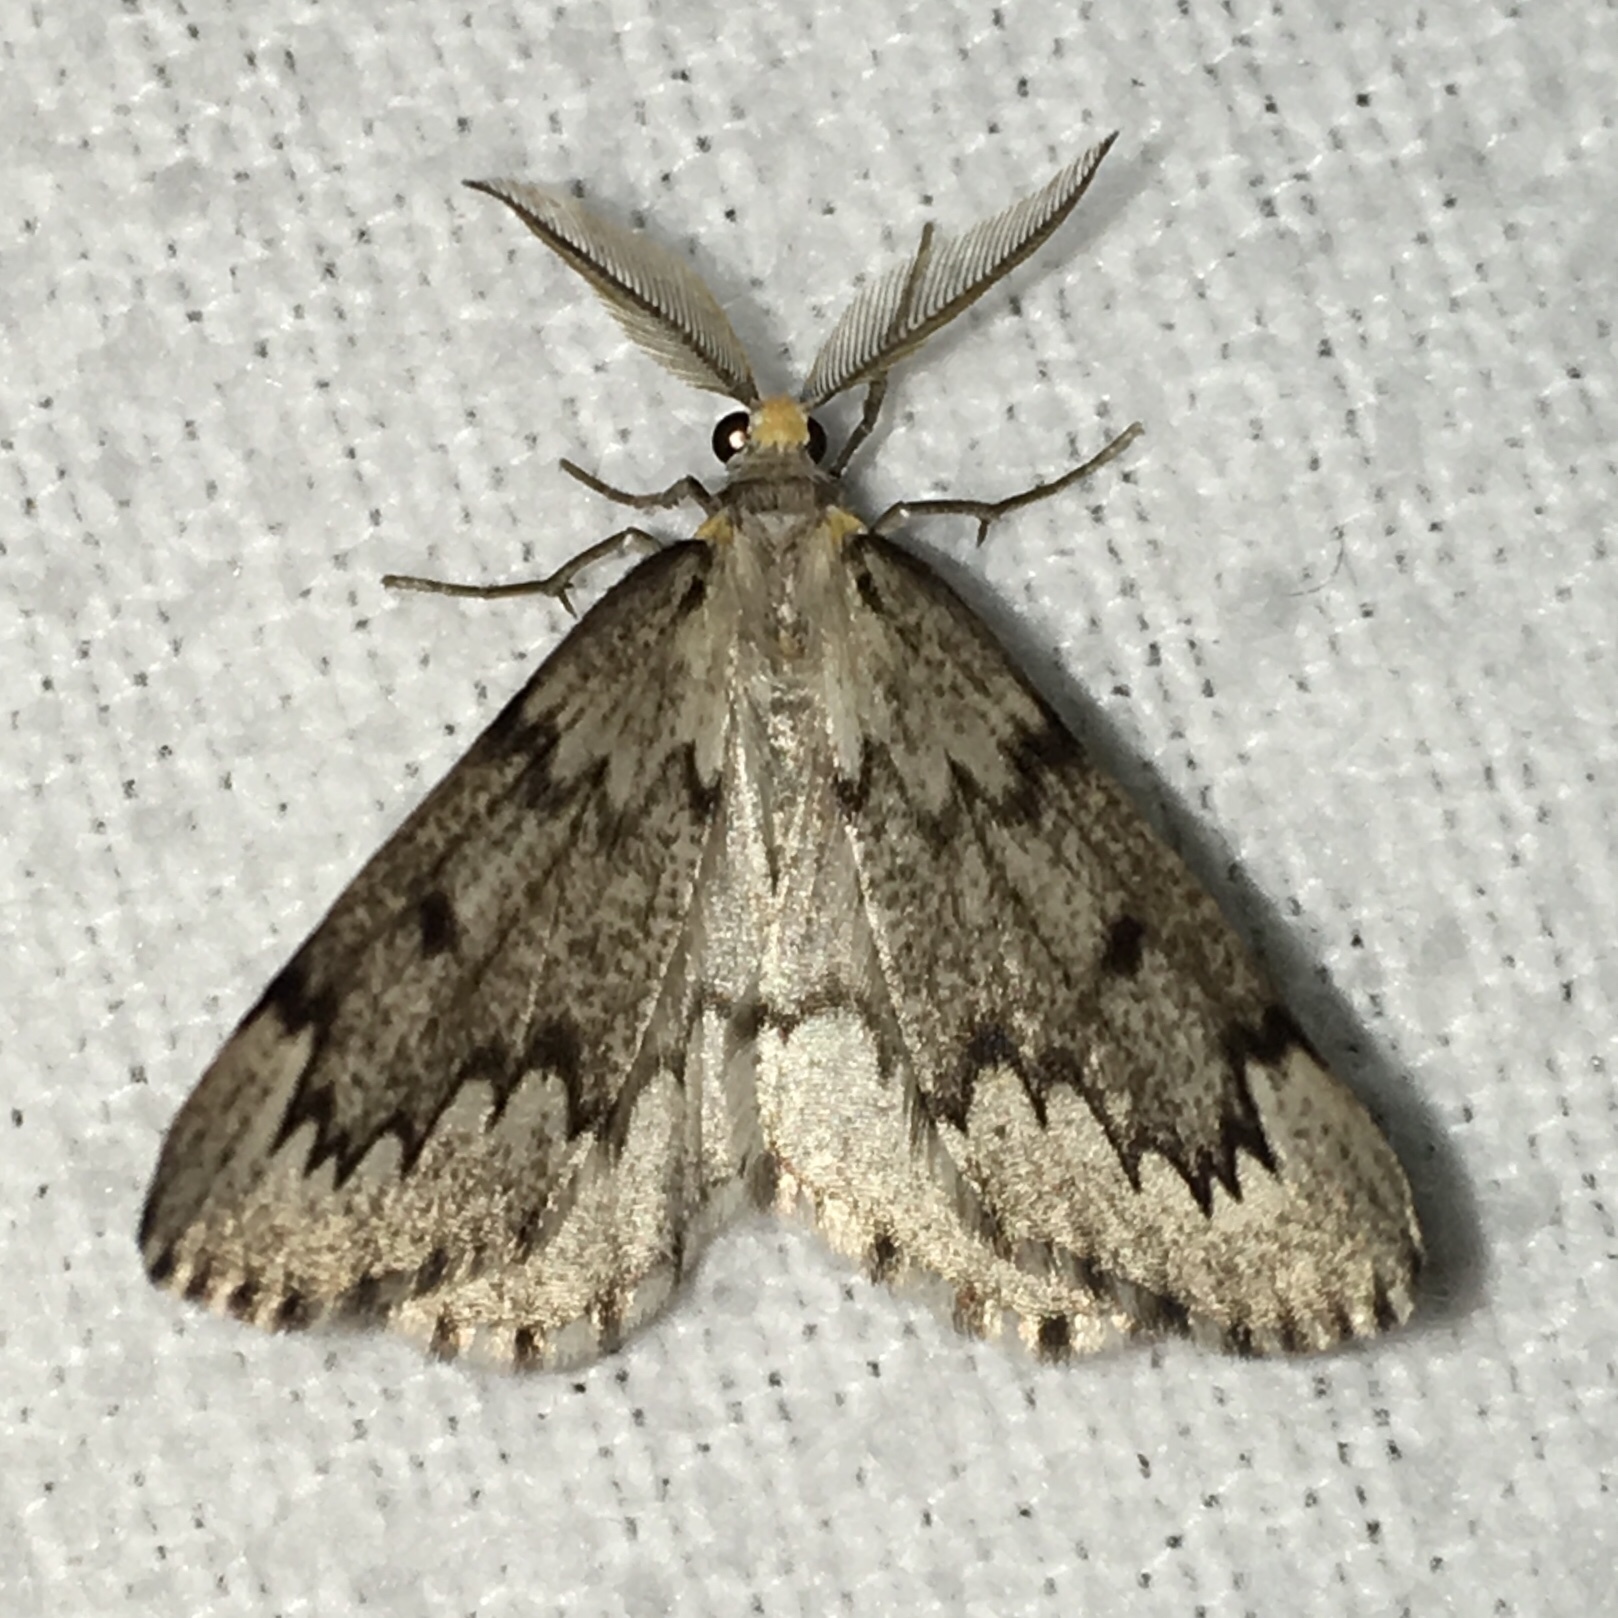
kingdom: Animalia
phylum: Arthropoda
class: Insecta
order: Lepidoptera
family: Geometridae
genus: Nepytia
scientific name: Nepytia canosaria
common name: False hemlock looper
